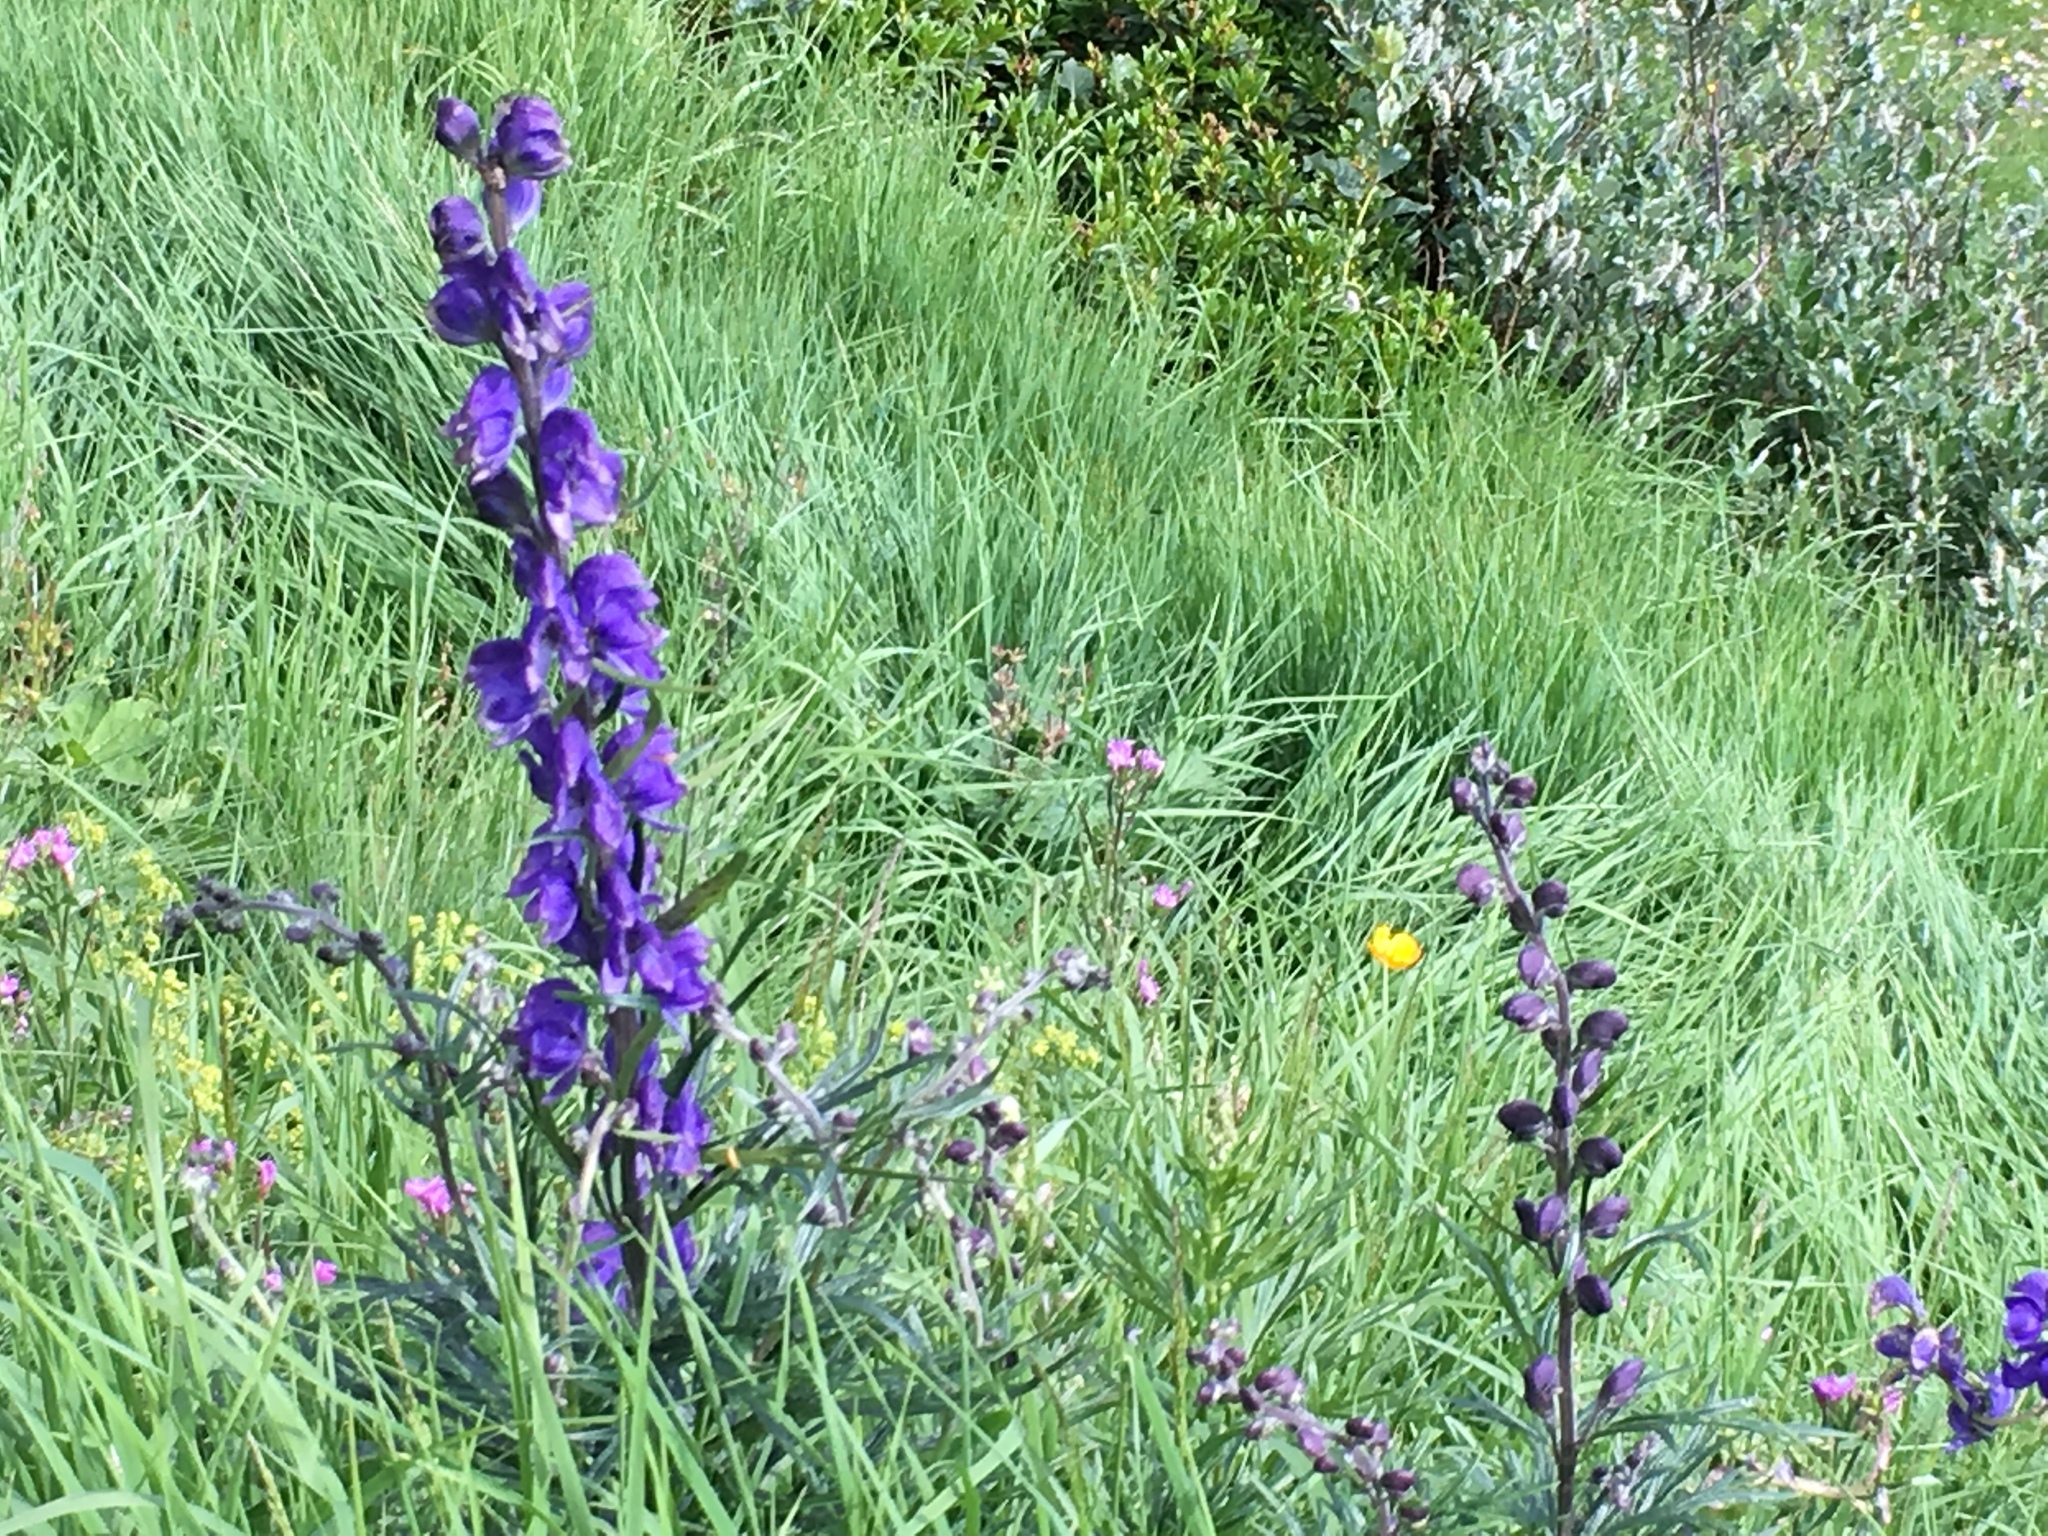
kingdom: Plantae
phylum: Tracheophyta
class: Magnoliopsida
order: Ranunculales
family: Ranunculaceae
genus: Aconitum
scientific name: Aconitum napellus
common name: Garden monkshood
